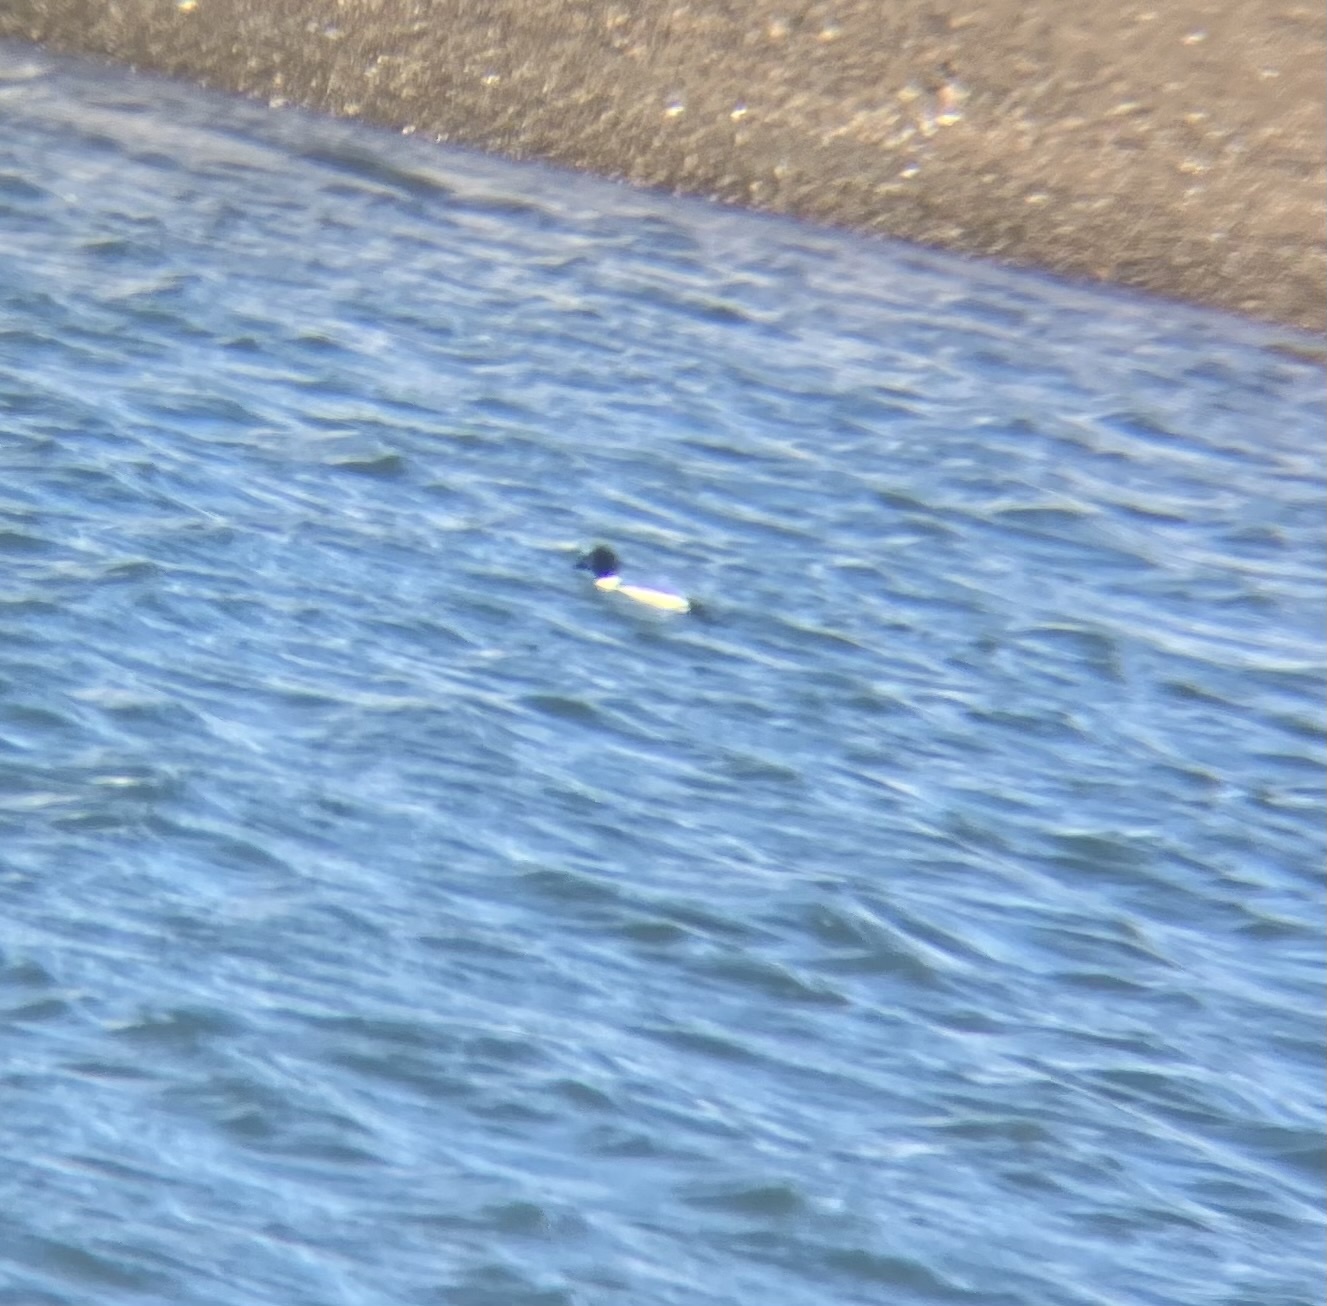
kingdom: Animalia
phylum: Chordata
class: Aves
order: Anseriformes
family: Anatidae
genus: Bucephala
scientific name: Bucephala clangula
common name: Common goldeneye
